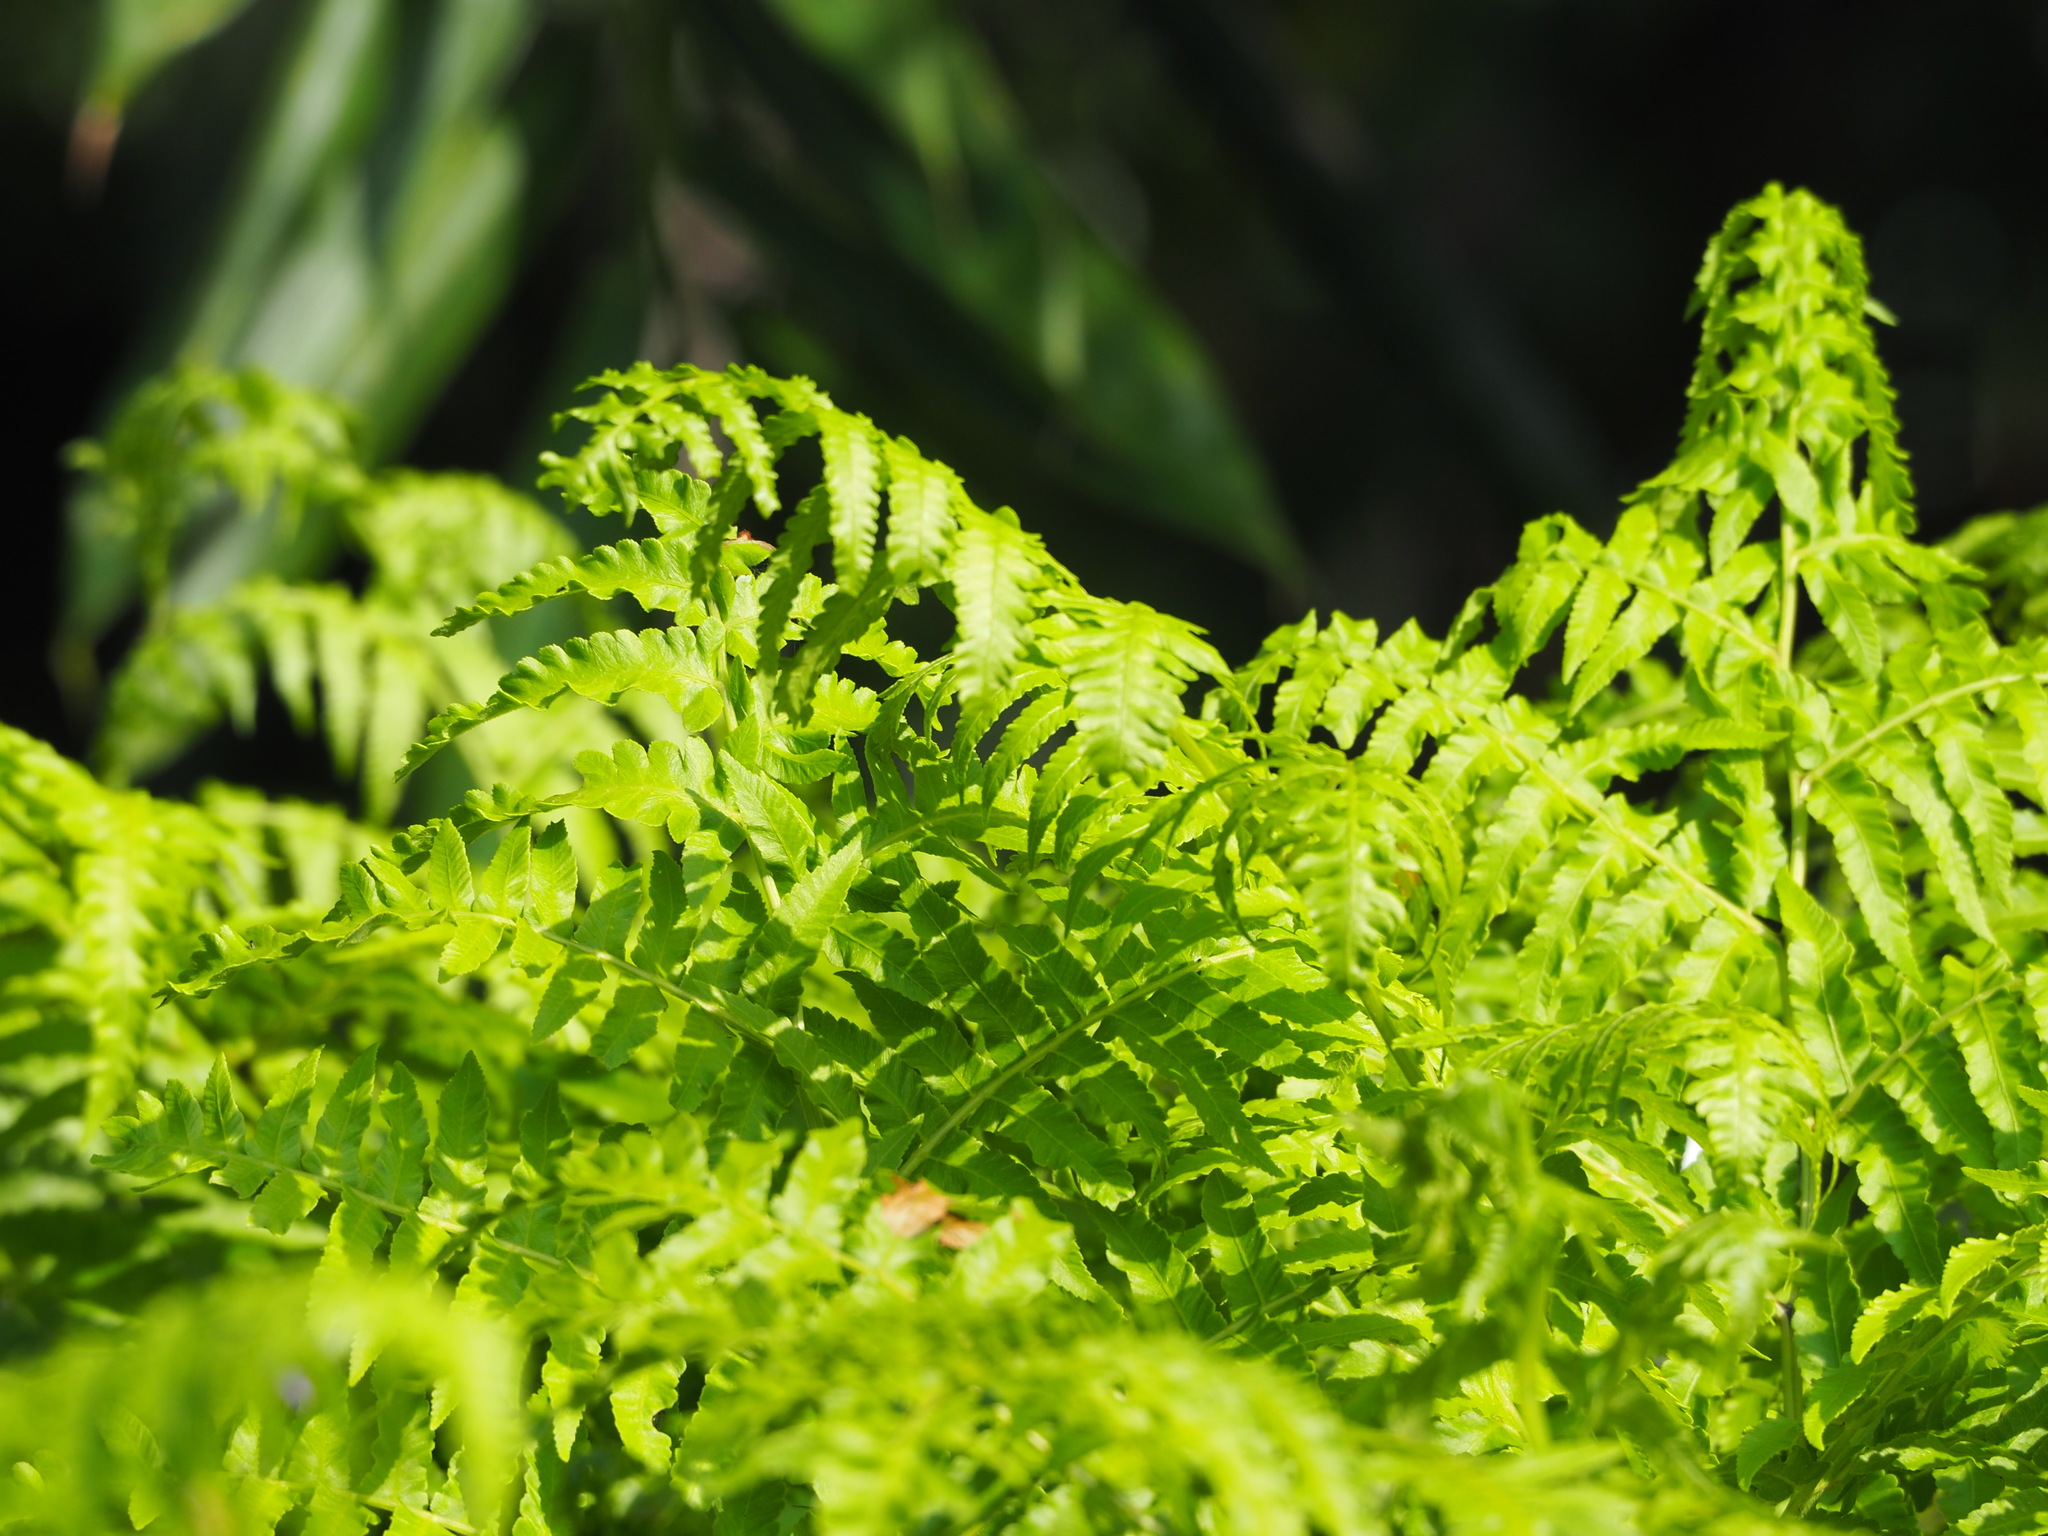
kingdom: Plantae
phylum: Tracheophyta
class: Polypodiopsida
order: Polypodiales
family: Athyriaceae
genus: Diplazium
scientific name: Diplazium esculentum
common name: Vegetable fern
